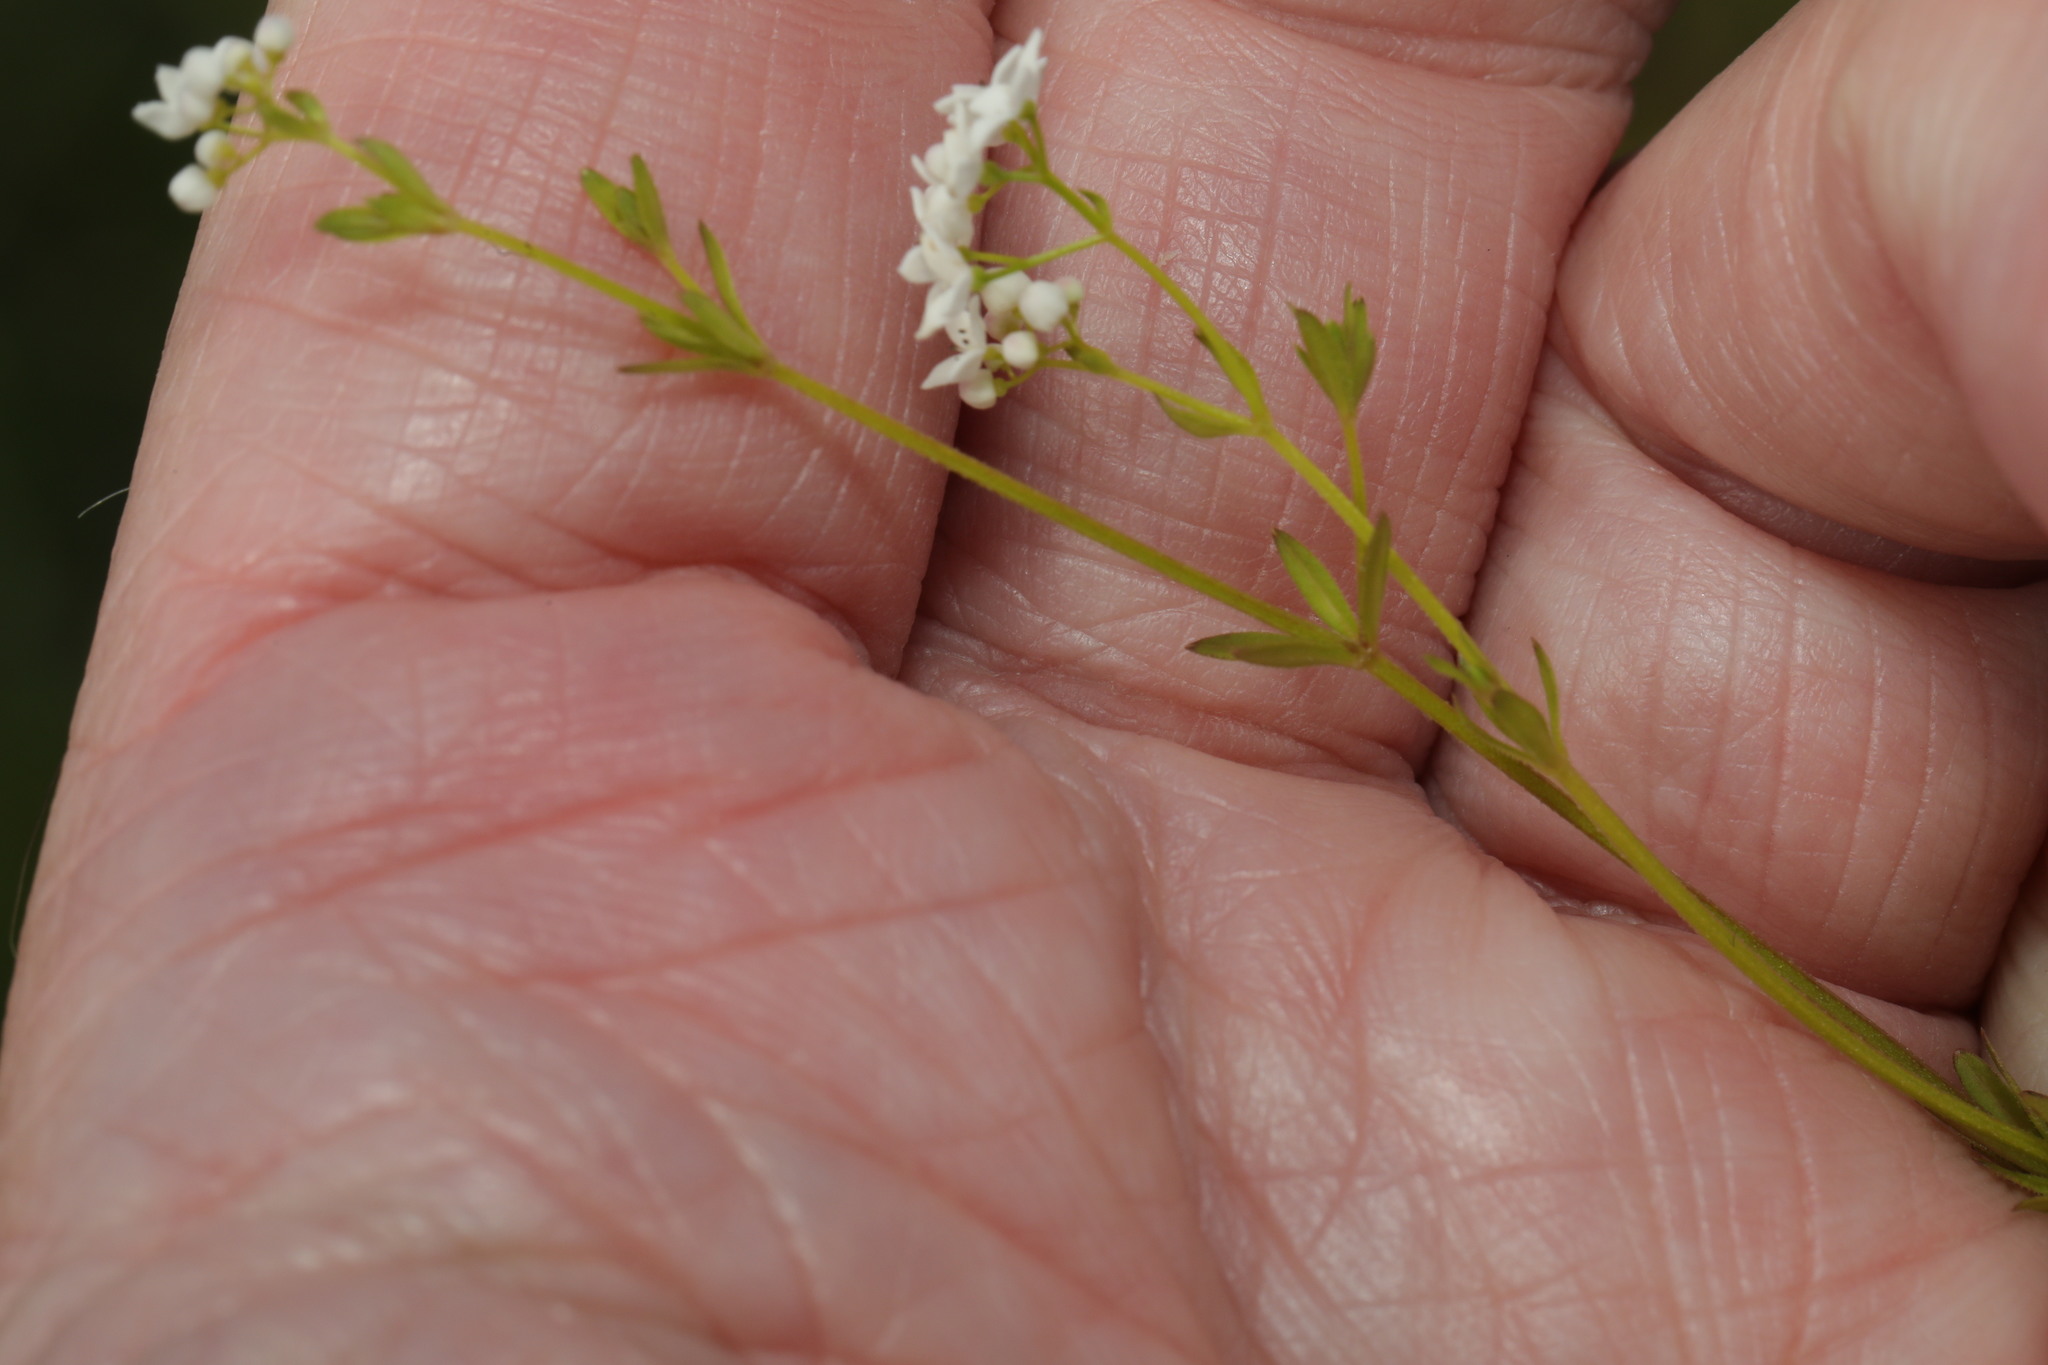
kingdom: Plantae
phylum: Tracheophyta
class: Magnoliopsida
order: Gentianales
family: Rubiaceae
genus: Galium
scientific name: Galium palustre
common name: Common marsh-bedstraw
